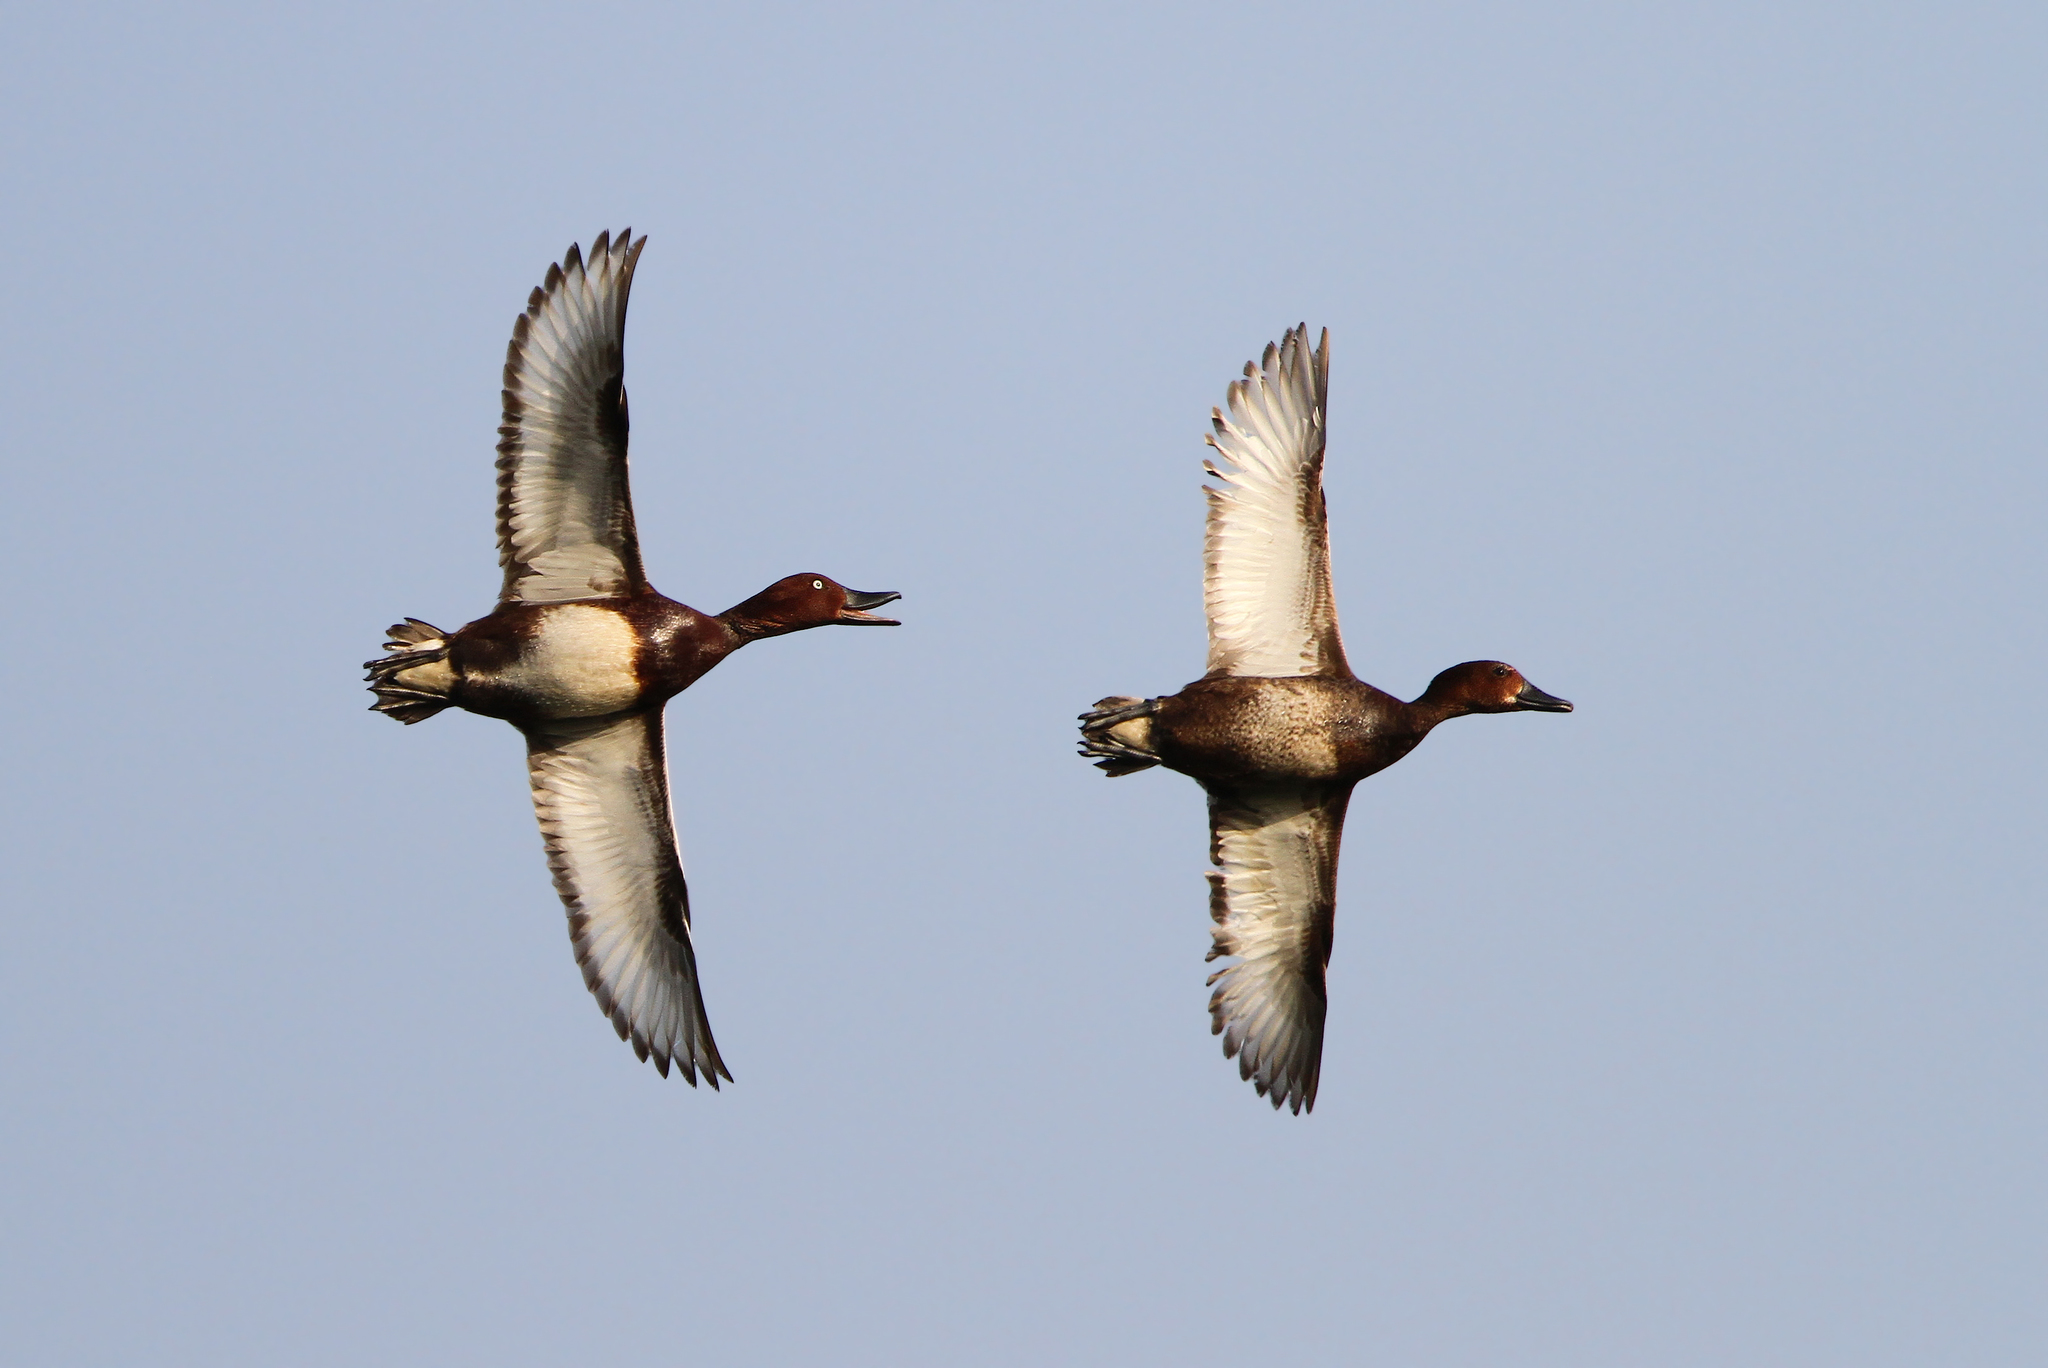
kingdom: Animalia
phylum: Chordata
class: Aves
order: Anseriformes
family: Anatidae
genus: Aythya
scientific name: Aythya nyroca
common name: Ferruginous duck
